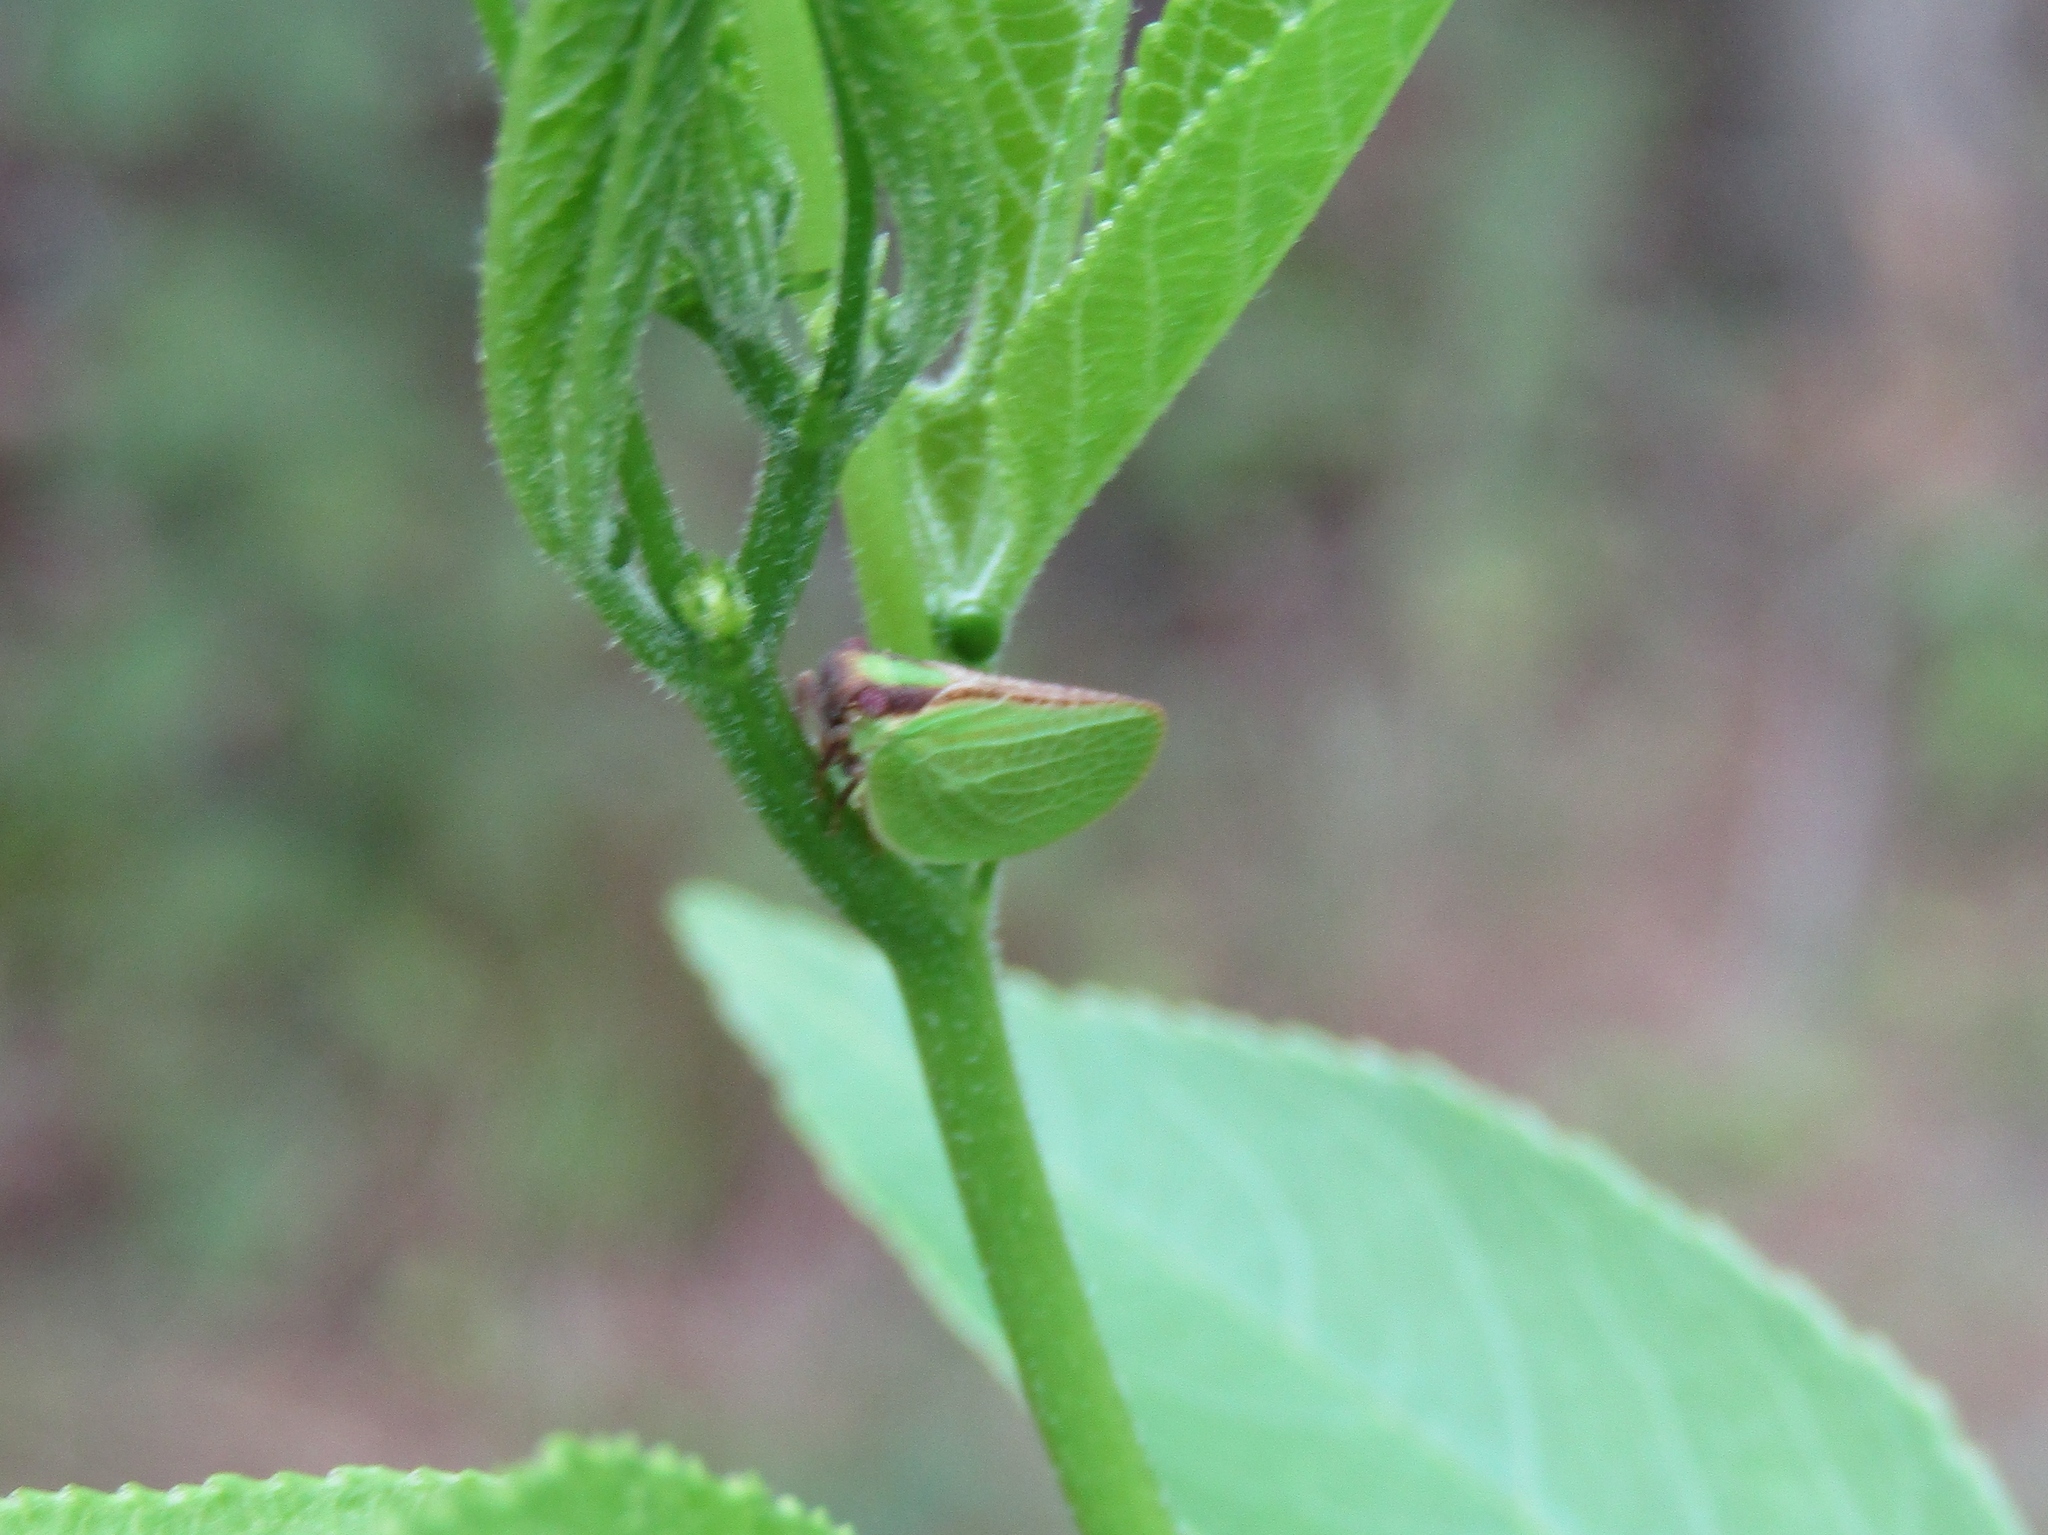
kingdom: Animalia
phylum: Arthropoda
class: Insecta
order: Hemiptera
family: Acanaloniidae
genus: Acanalonia
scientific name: Acanalonia bivittata
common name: Two-striped planthopper
